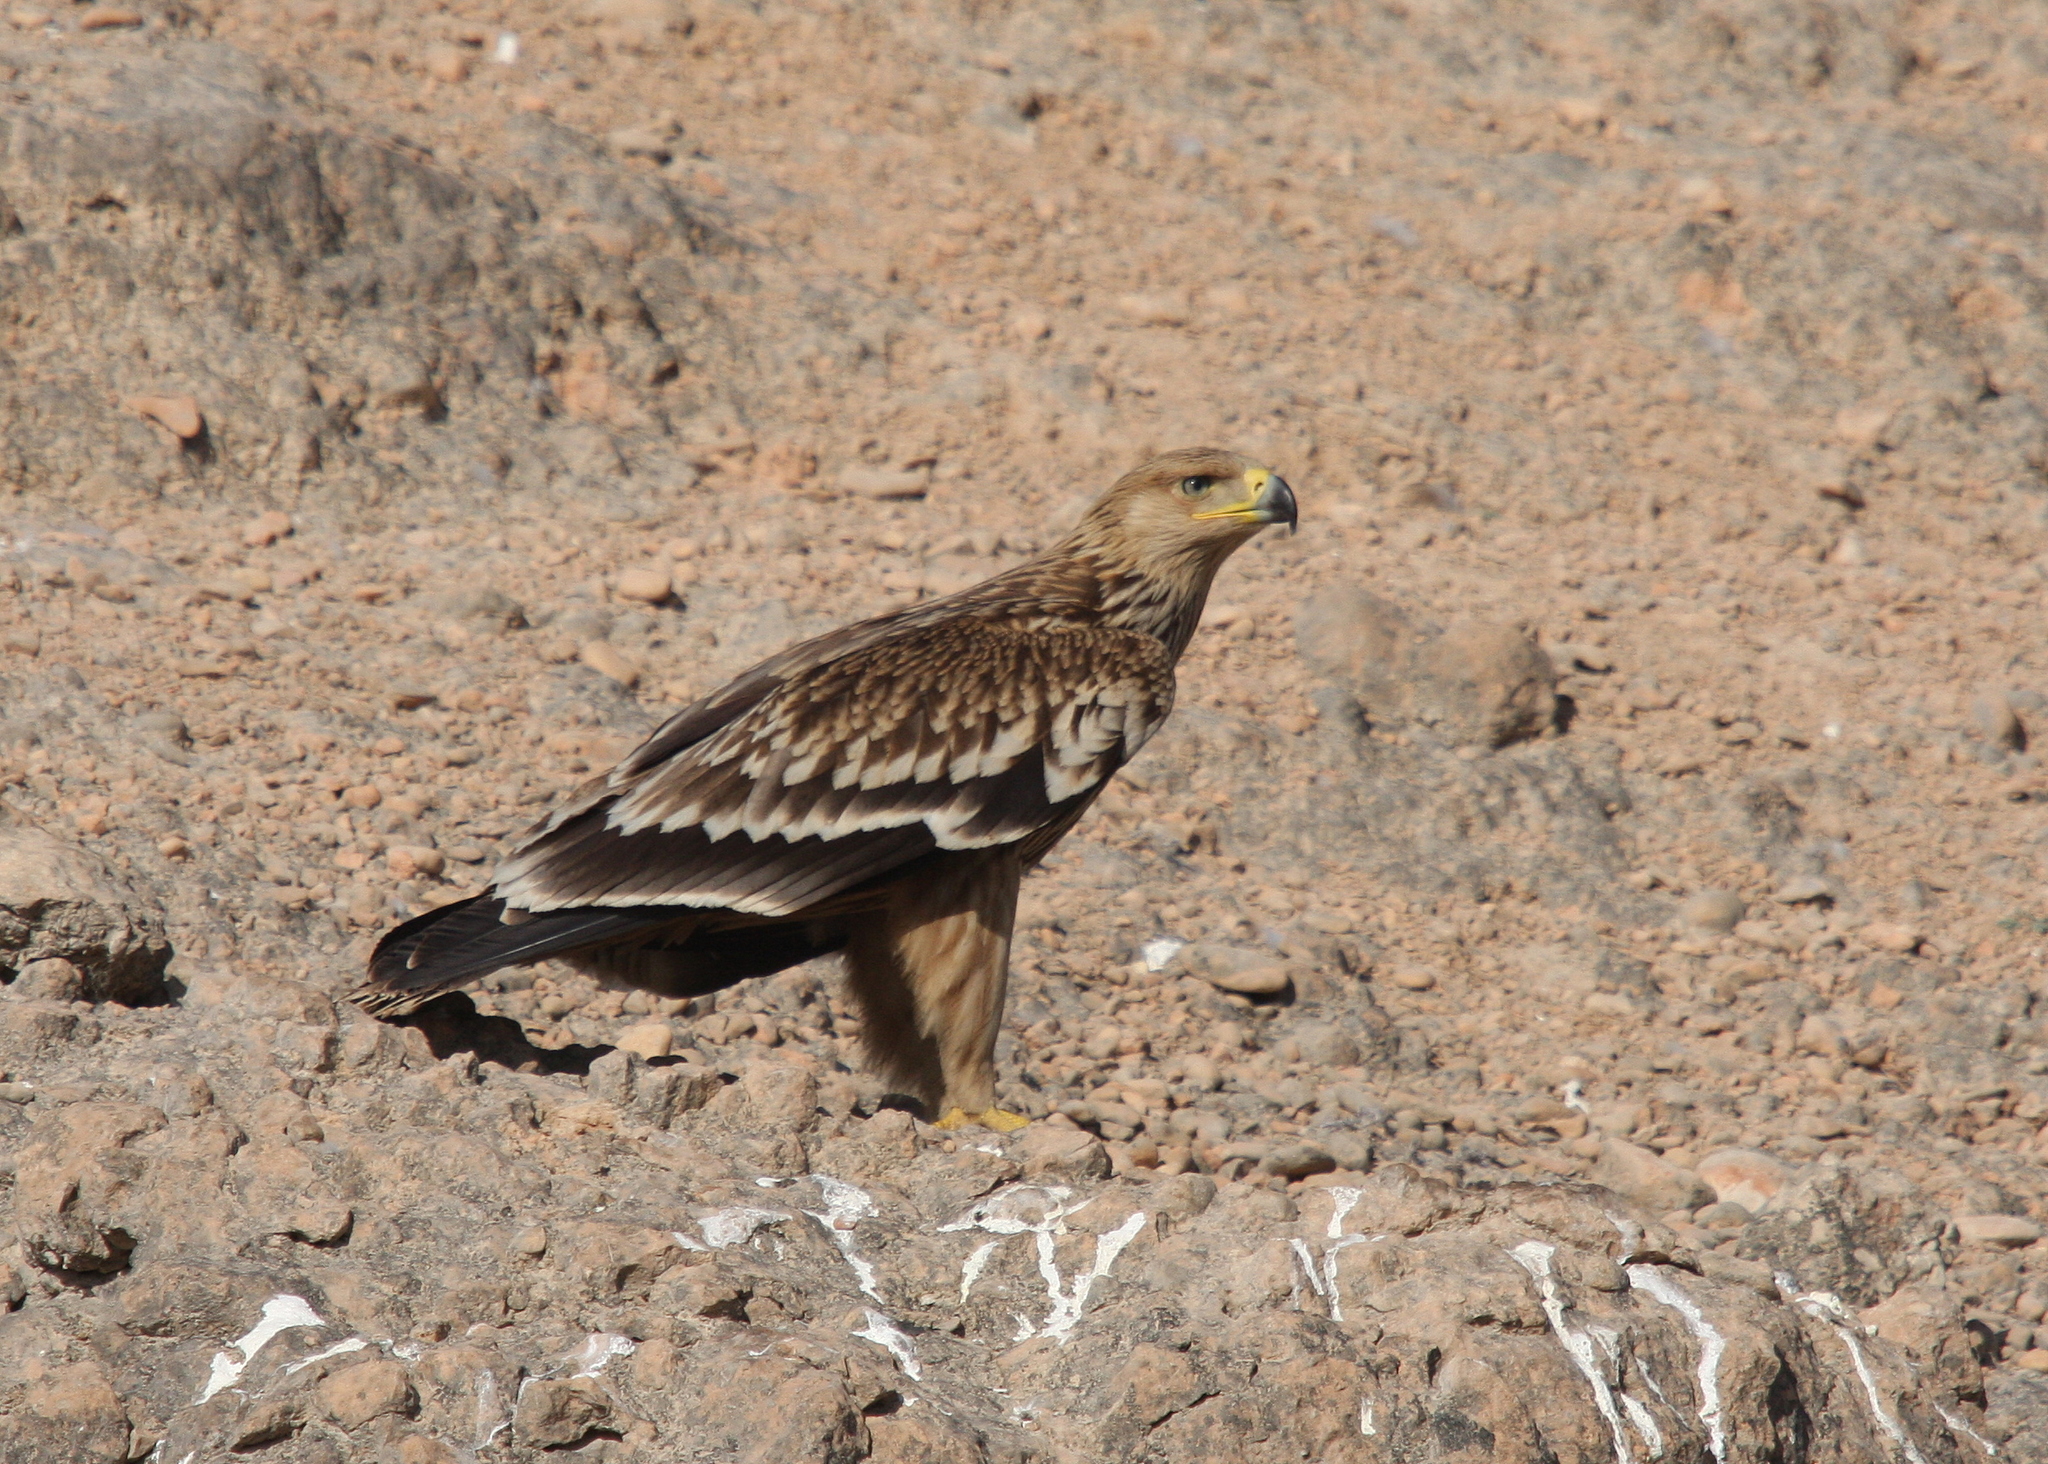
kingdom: Animalia
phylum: Chordata
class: Aves
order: Accipitriformes
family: Accipitridae
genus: Aquila
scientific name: Aquila heliaca
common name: Eastern imperial eagle
